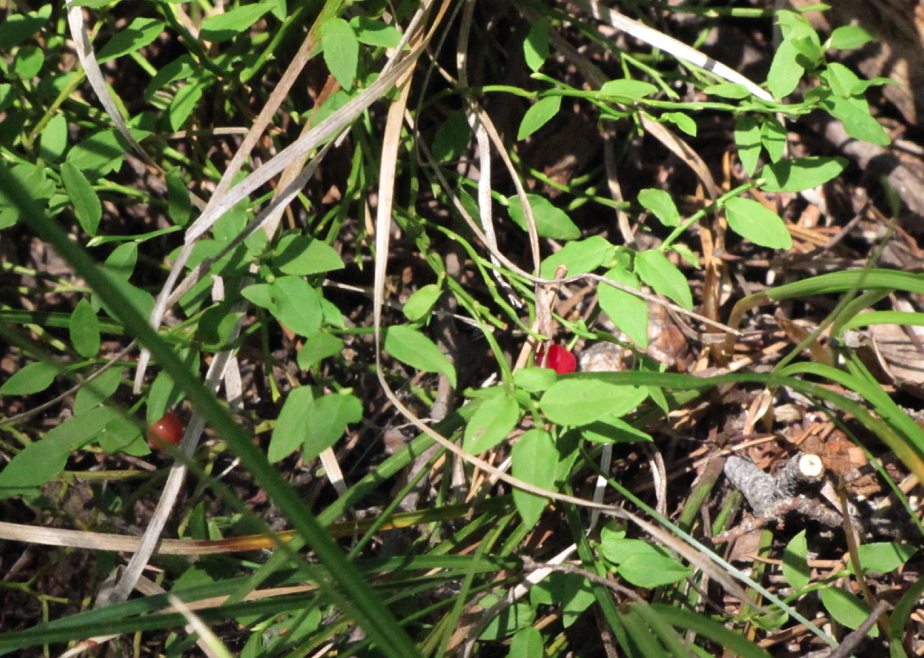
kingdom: Plantae
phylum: Tracheophyta
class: Magnoliopsida
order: Ericales
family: Ericaceae
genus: Vaccinium
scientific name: Vaccinium scoparium
